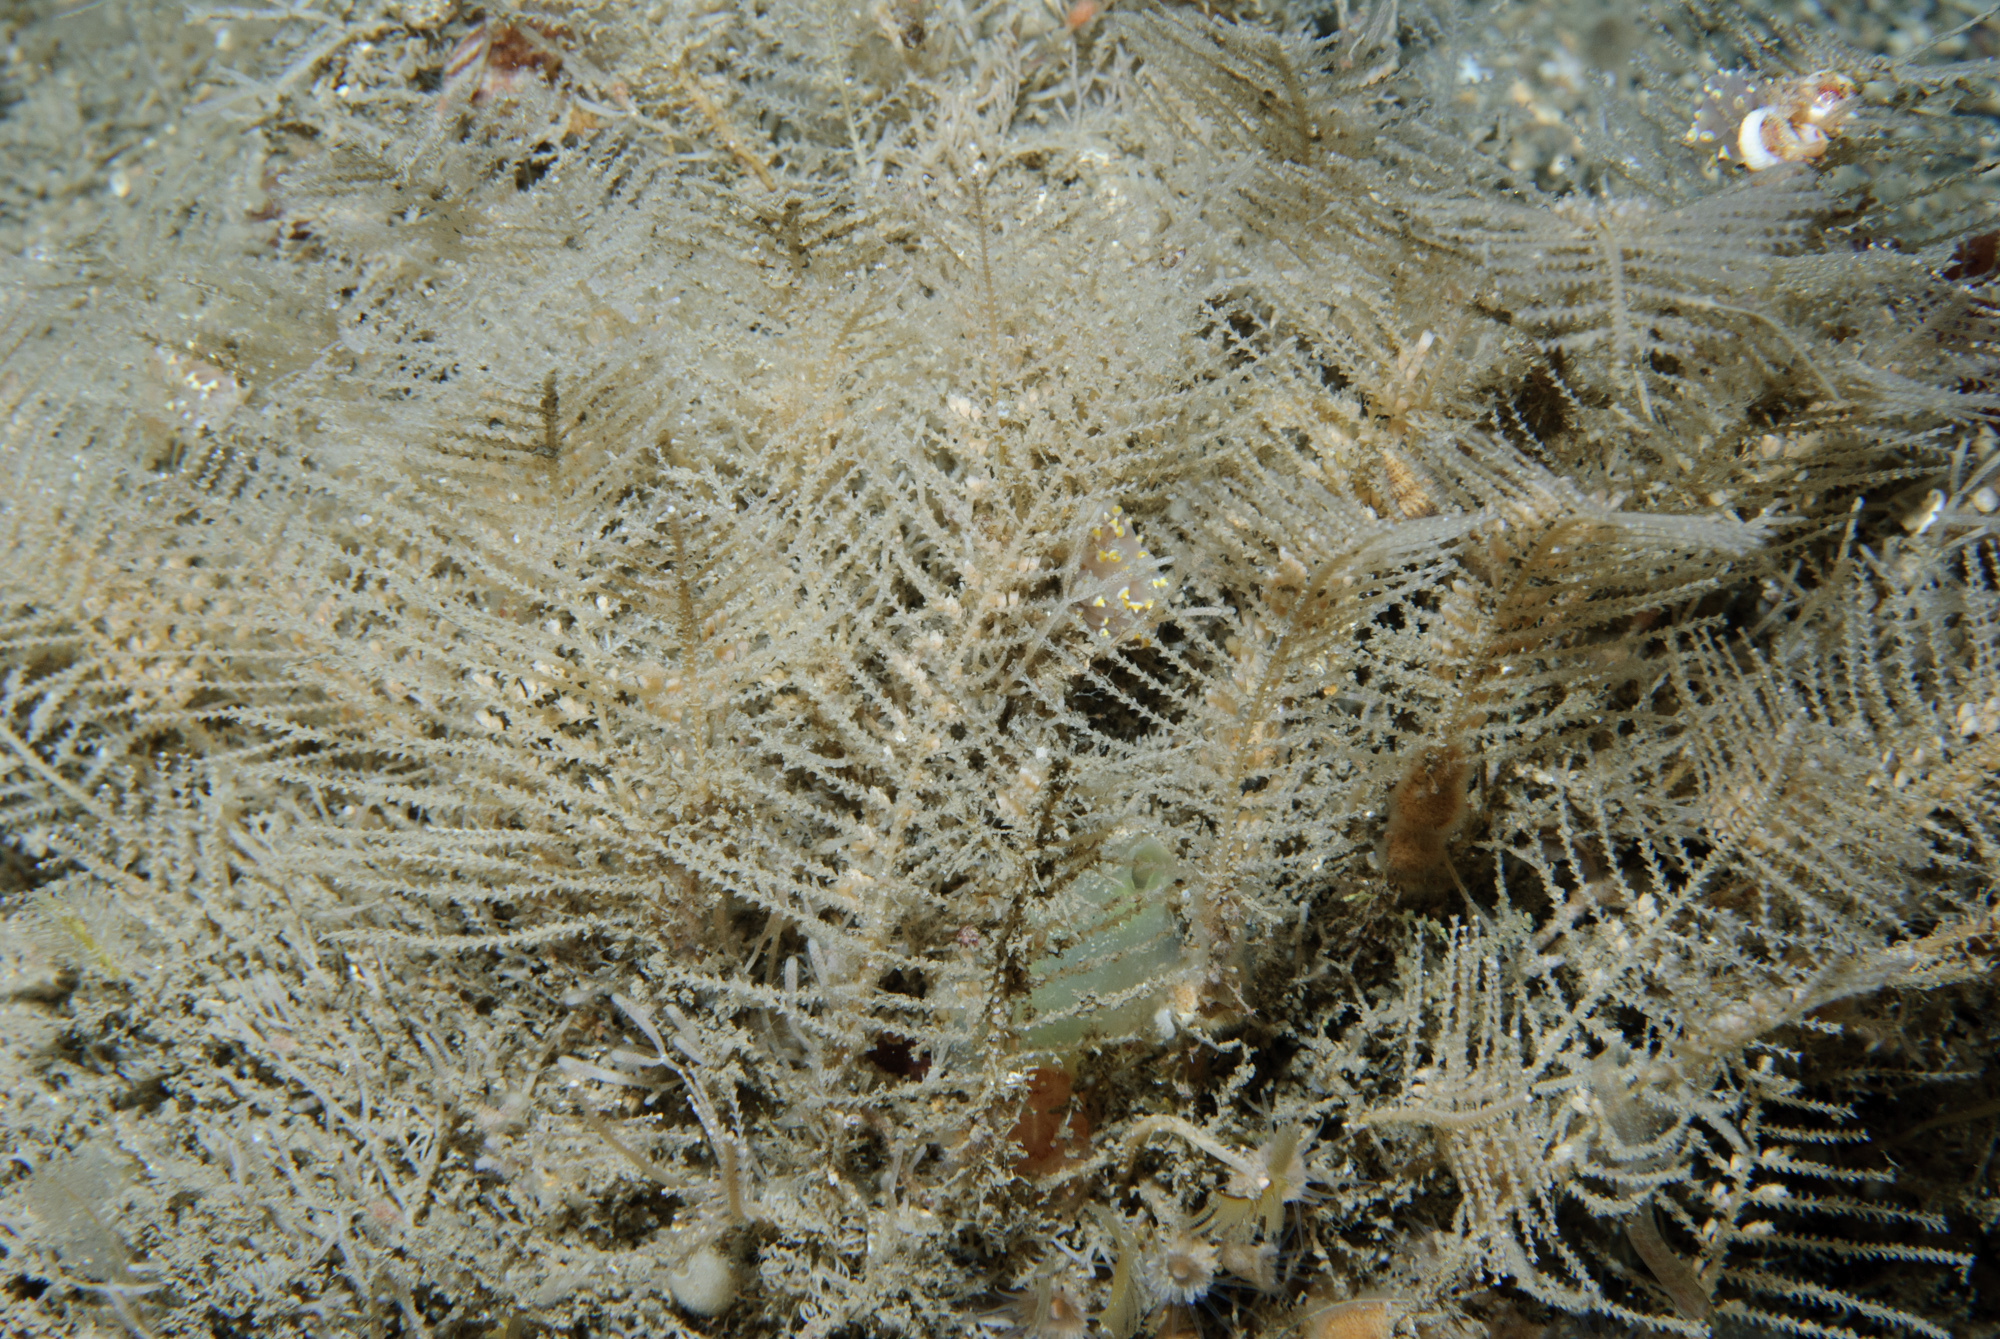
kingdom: Animalia
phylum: Cnidaria
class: Hydrozoa
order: Leptothecata
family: Sertulariidae
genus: Diphasia
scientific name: Diphasia margareta
